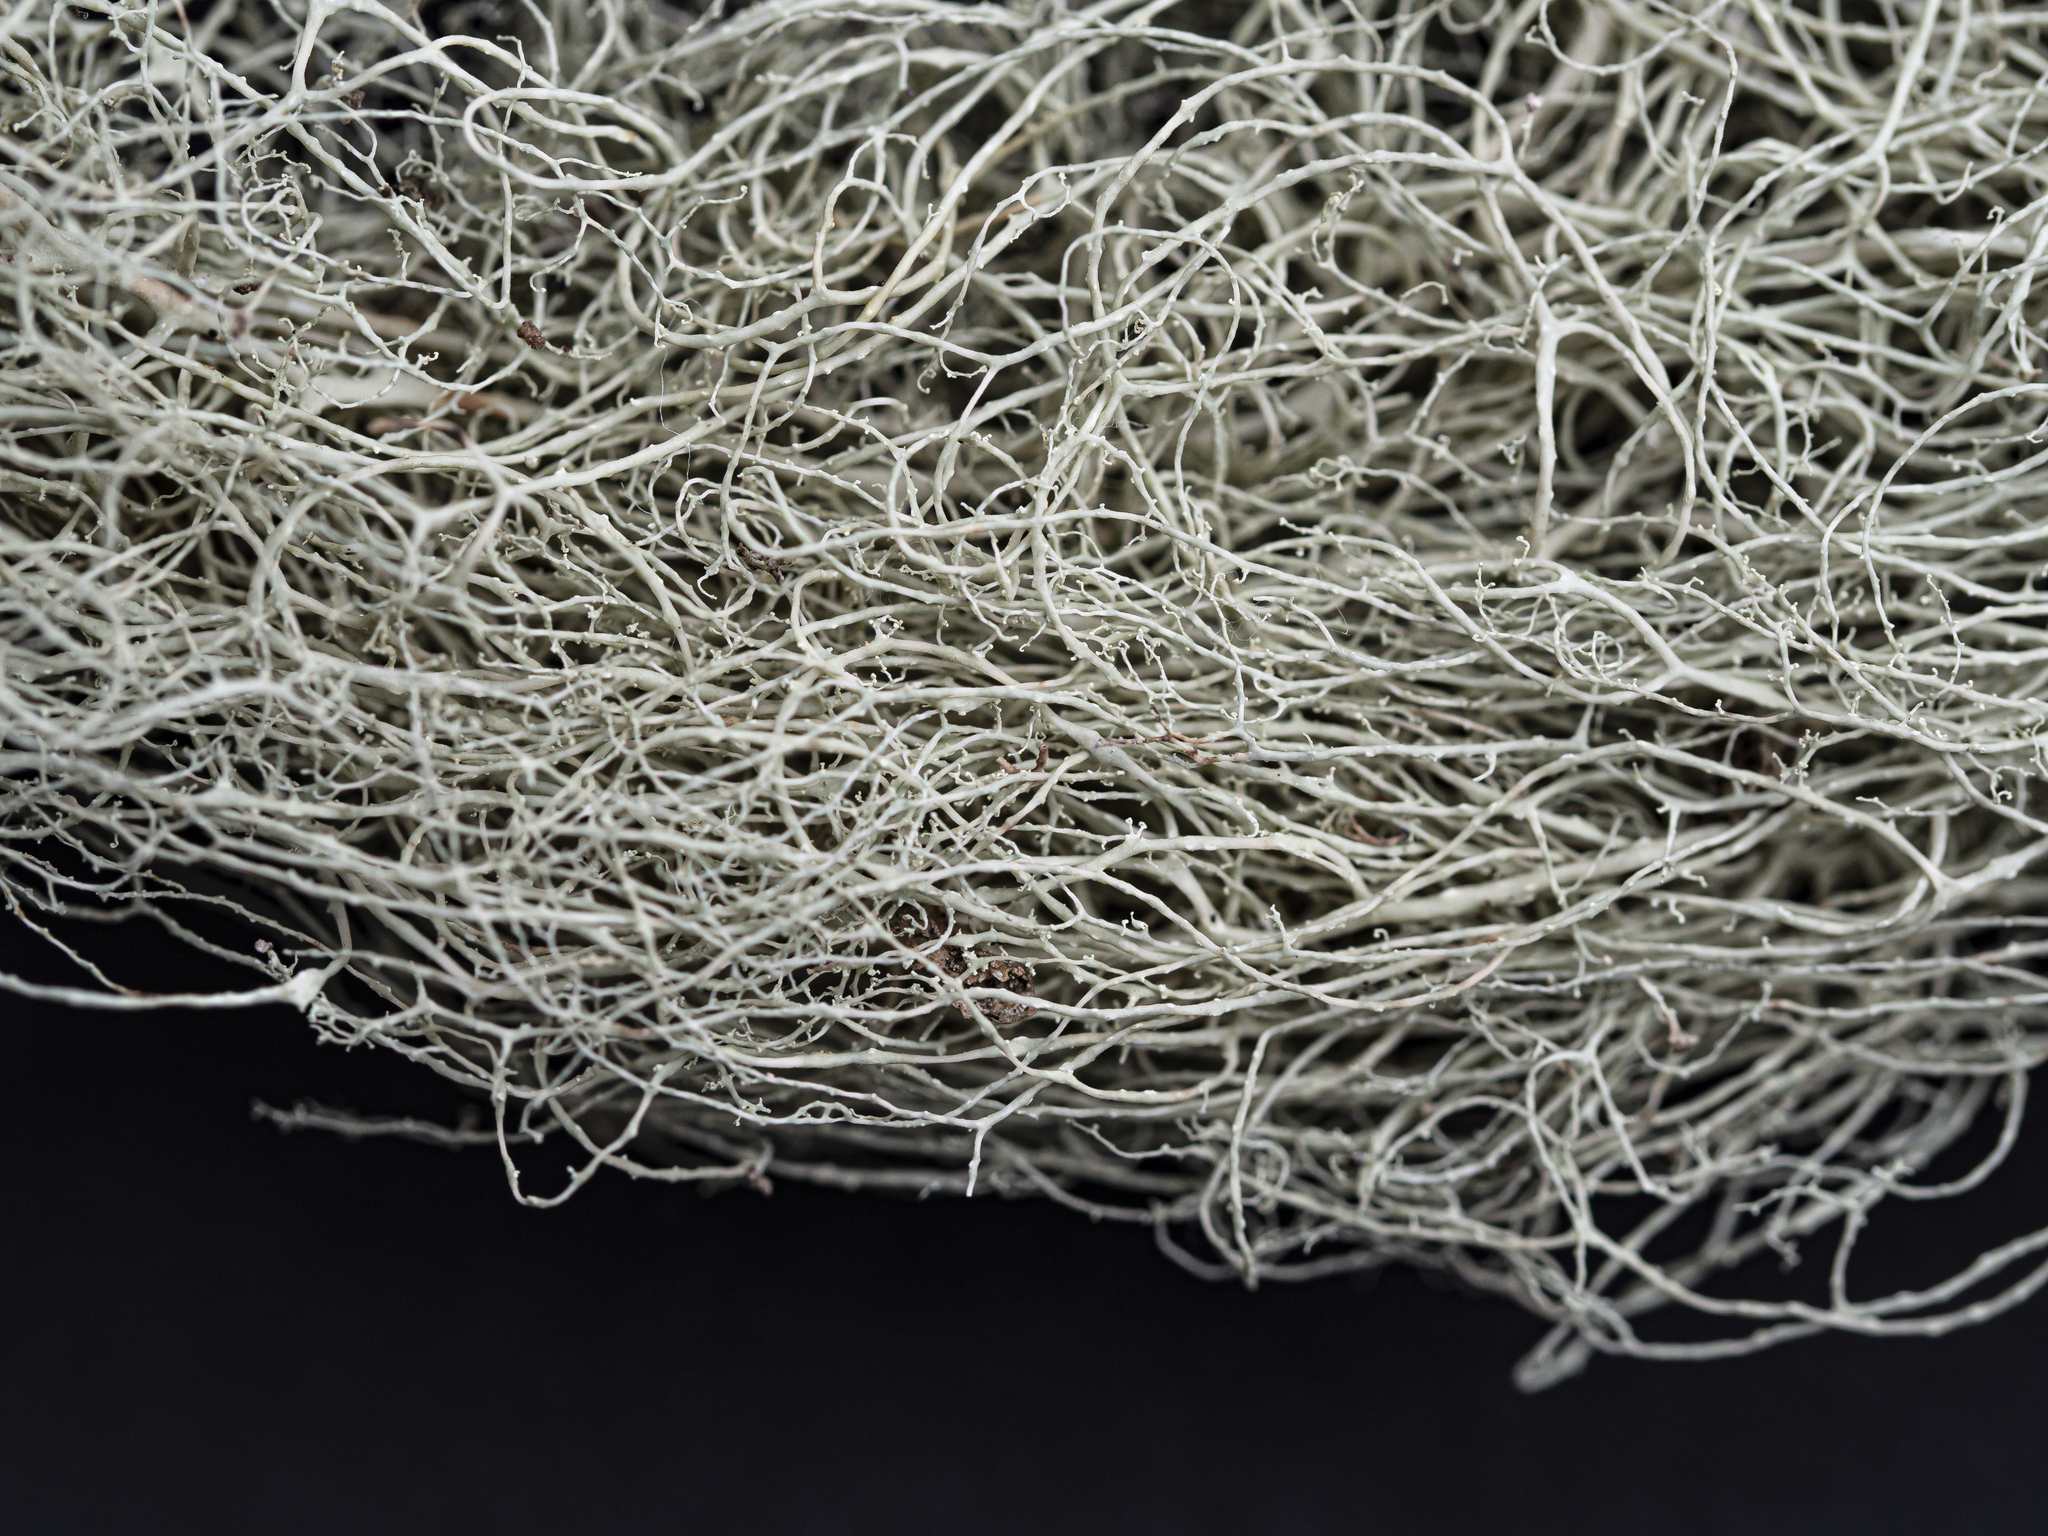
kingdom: Fungi
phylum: Ascomycota
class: Lecanoromycetes
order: Lecanorales
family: Ramalinaceae
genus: Ramalina
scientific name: Ramalina thrausta
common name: Angel's hair
